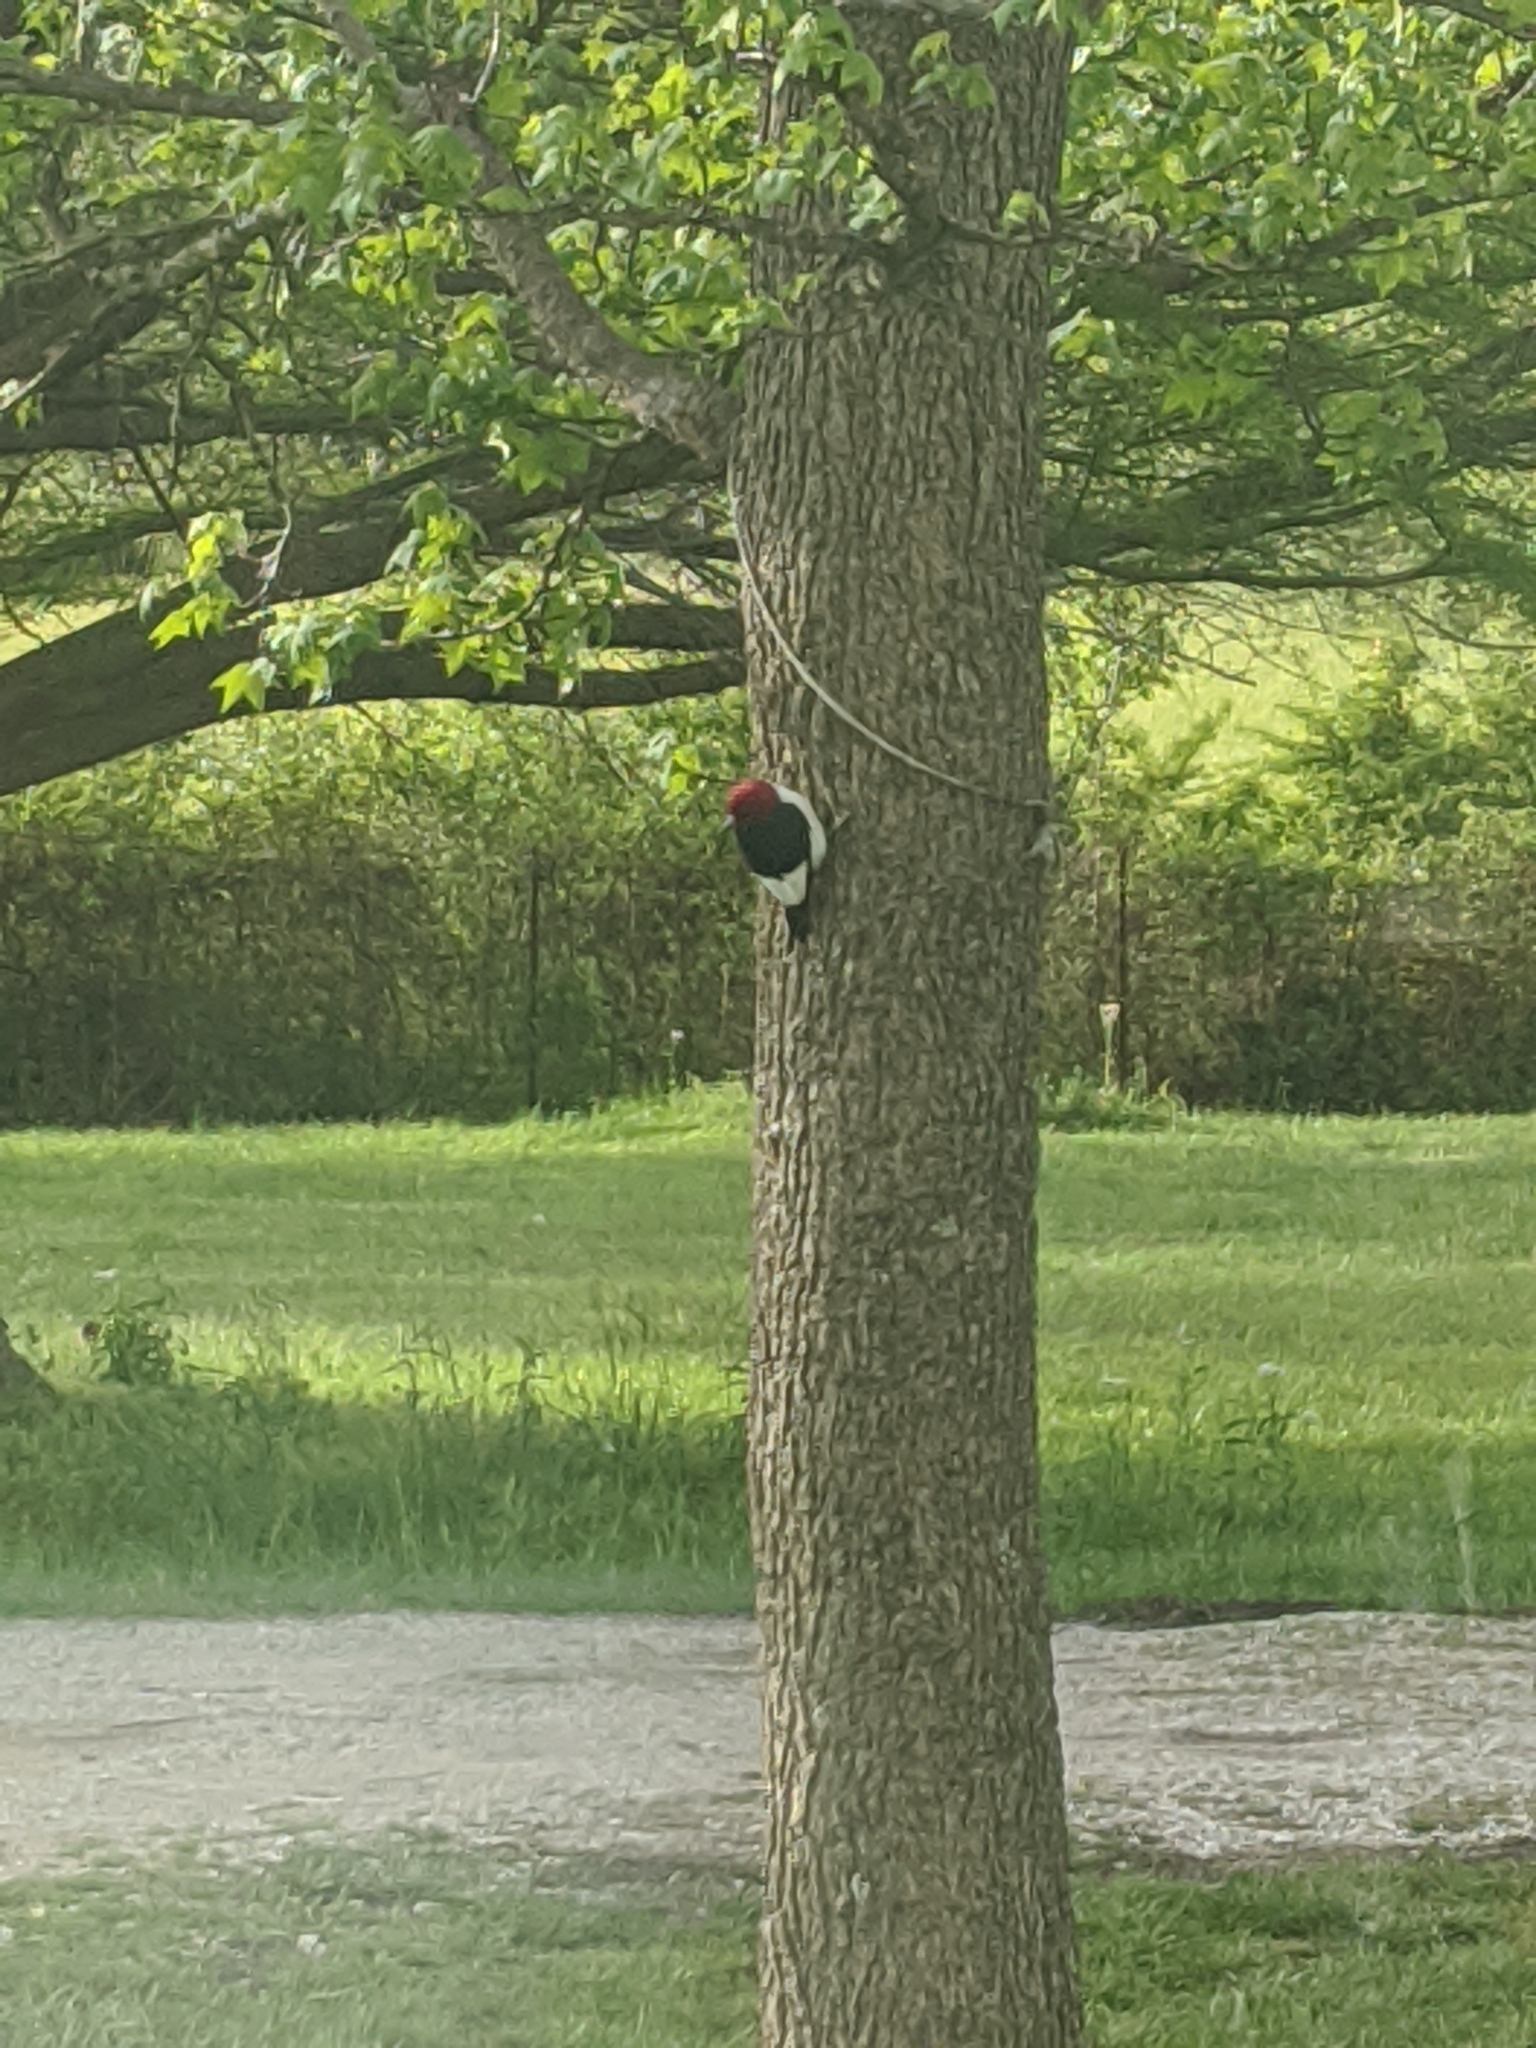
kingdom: Animalia
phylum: Chordata
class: Aves
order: Piciformes
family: Picidae
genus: Melanerpes
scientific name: Melanerpes erythrocephalus
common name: Red-headed woodpecker
